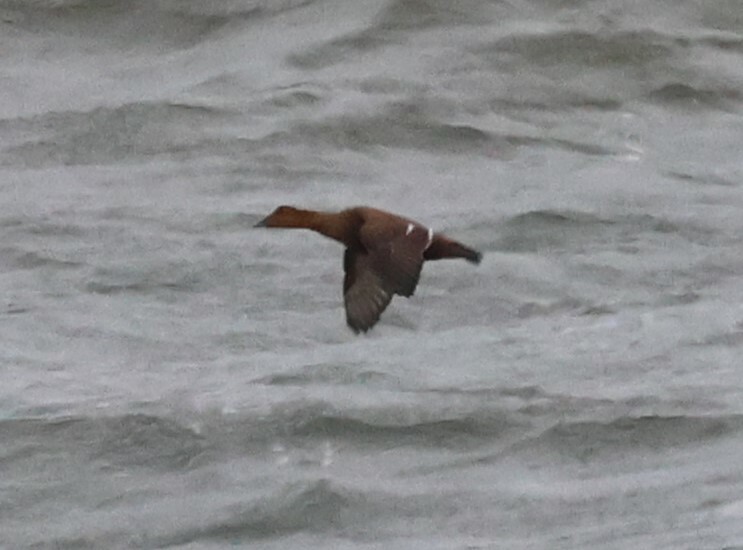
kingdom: Animalia
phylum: Chordata
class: Aves
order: Anseriformes
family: Anatidae
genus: Somateria
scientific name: Somateria mollissima
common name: Common eider
